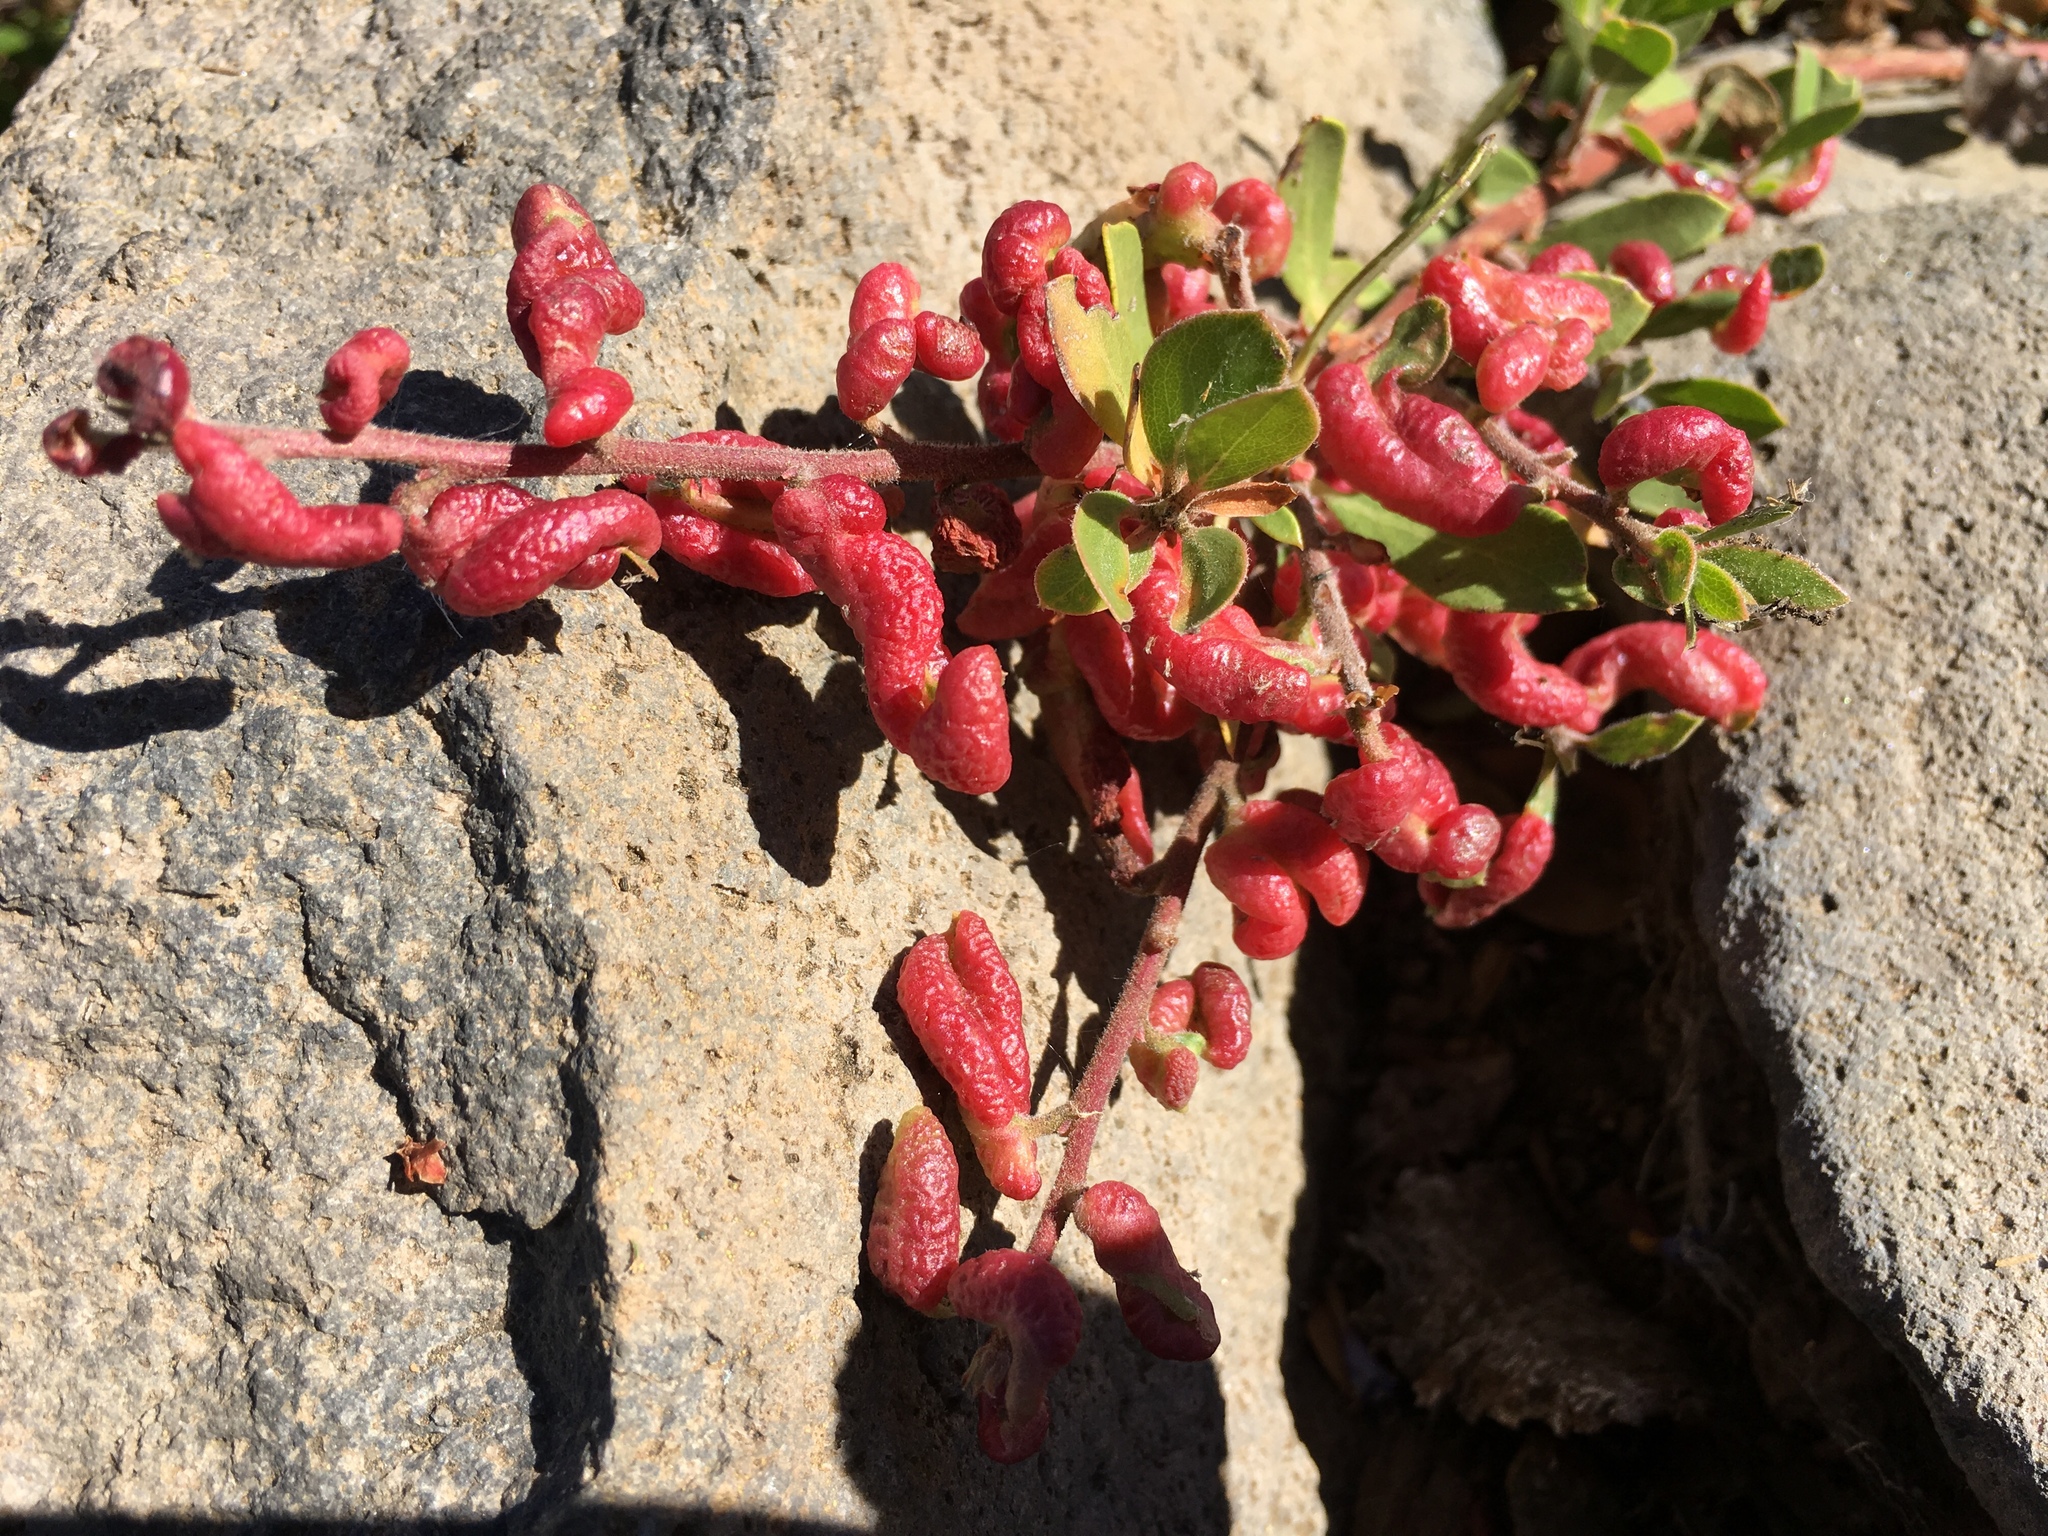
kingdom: Animalia
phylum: Arthropoda
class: Insecta
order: Hemiptera
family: Aphididae
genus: Tamalia
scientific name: Tamalia coweni
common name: Manzanita leafgall aphid
